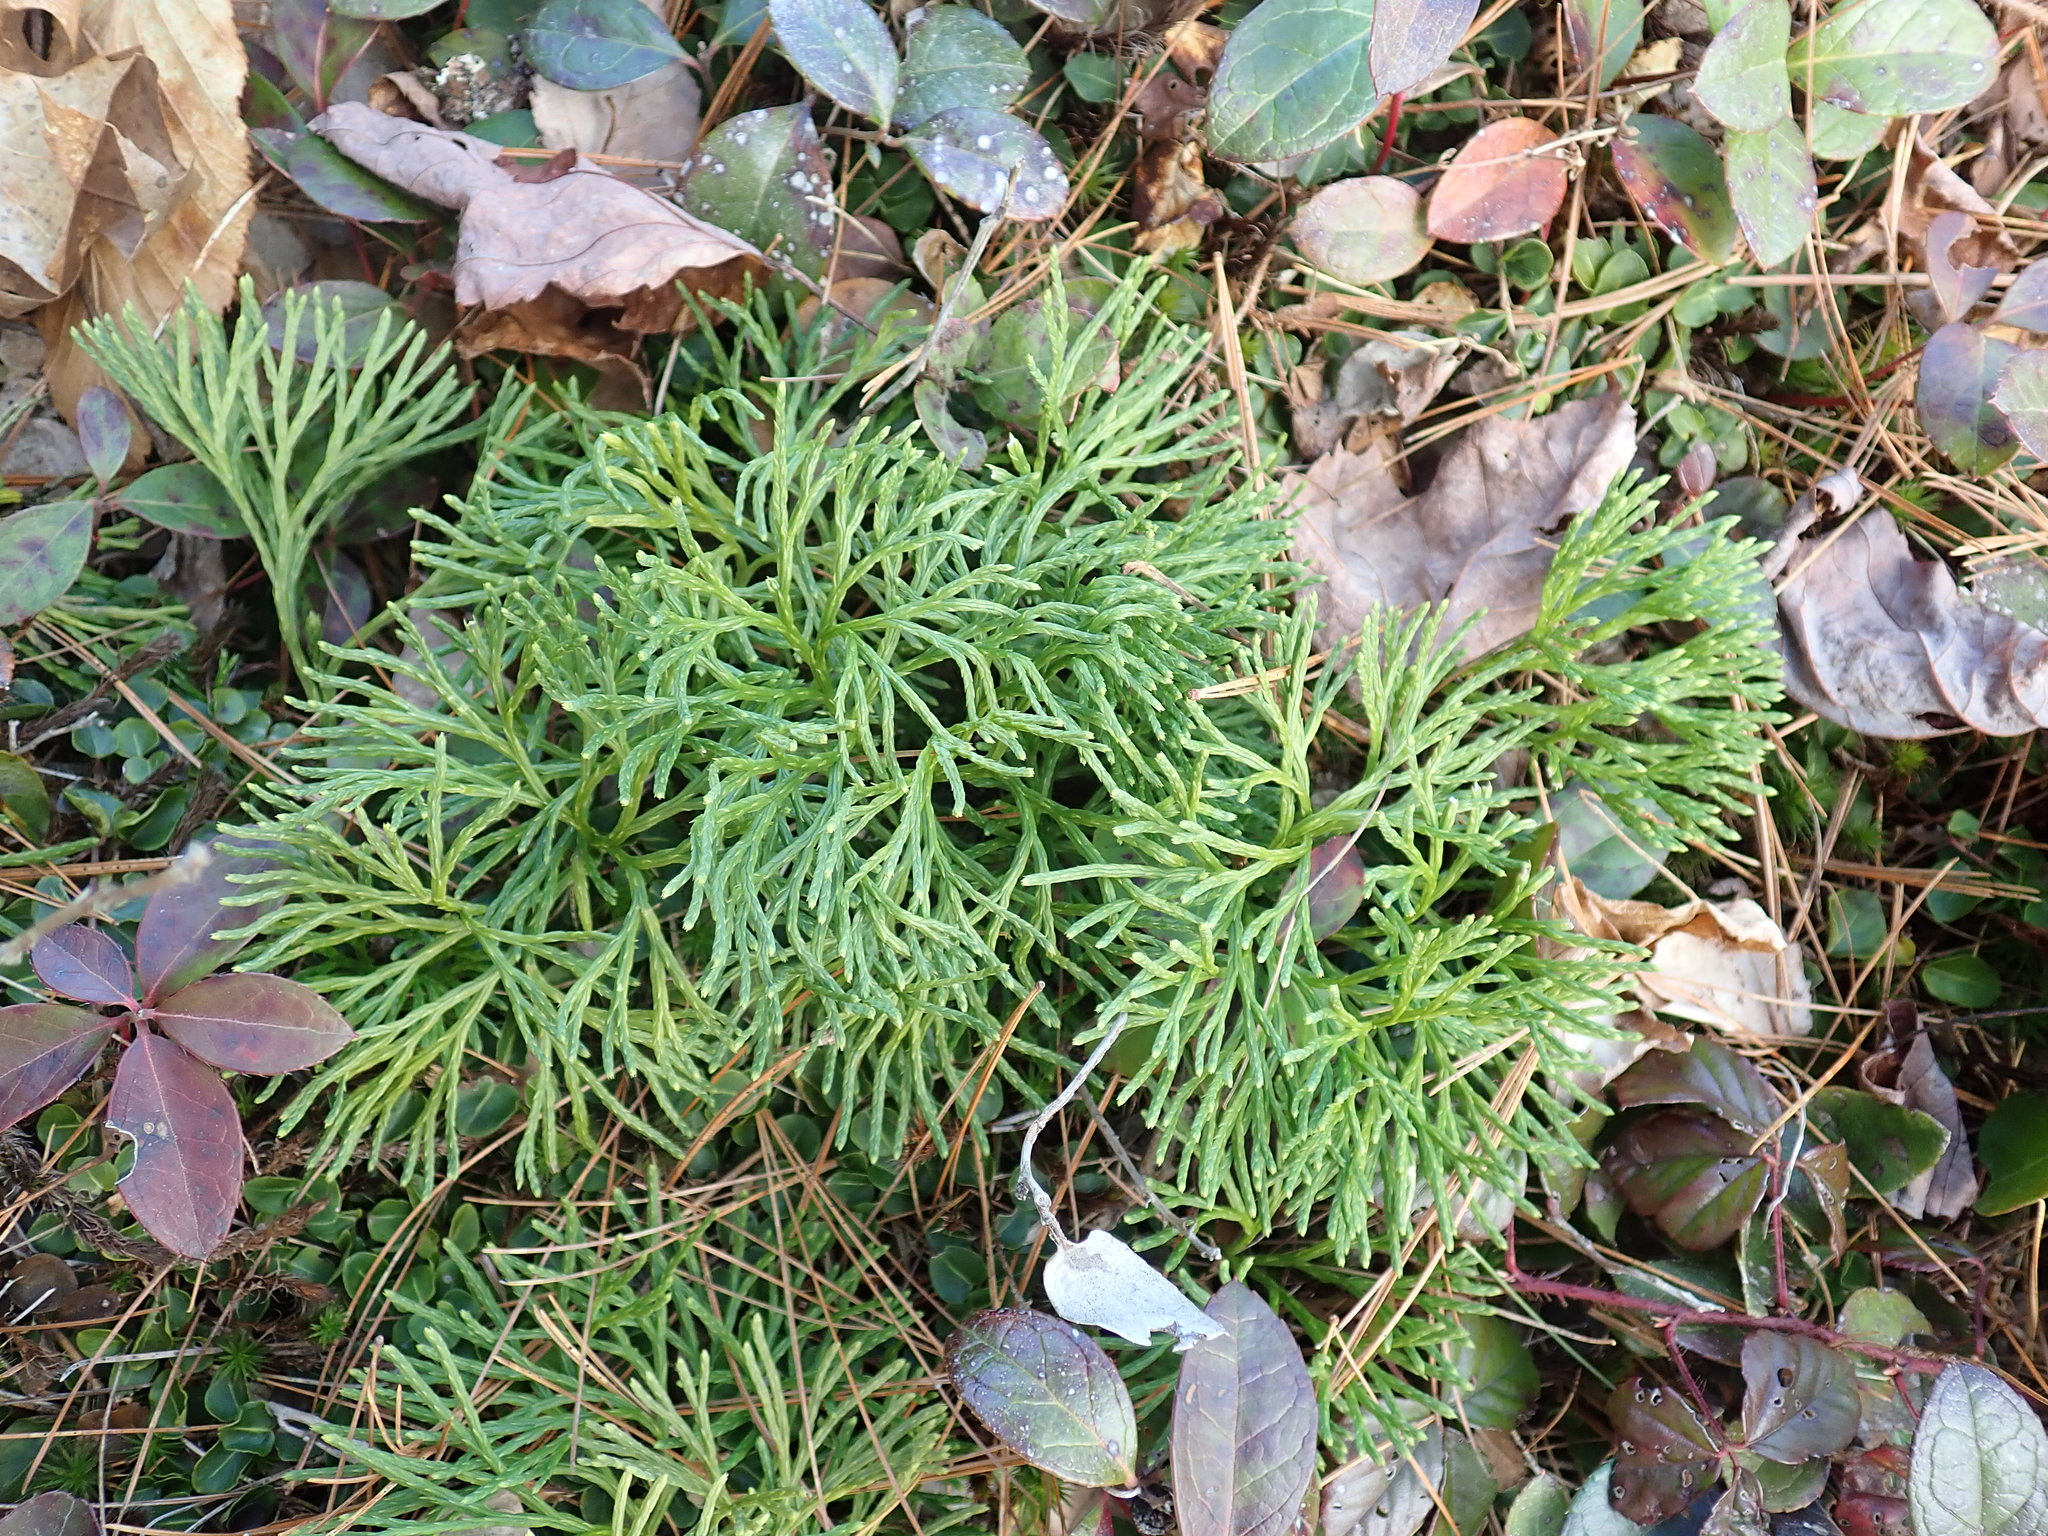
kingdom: Plantae
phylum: Tracheophyta
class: Lycopodiopsida
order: Lycopodiales
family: Lycopodiaceae
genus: Diphasiastrum
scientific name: Diphasiastrum tristachyum
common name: Blue ground-cedar
